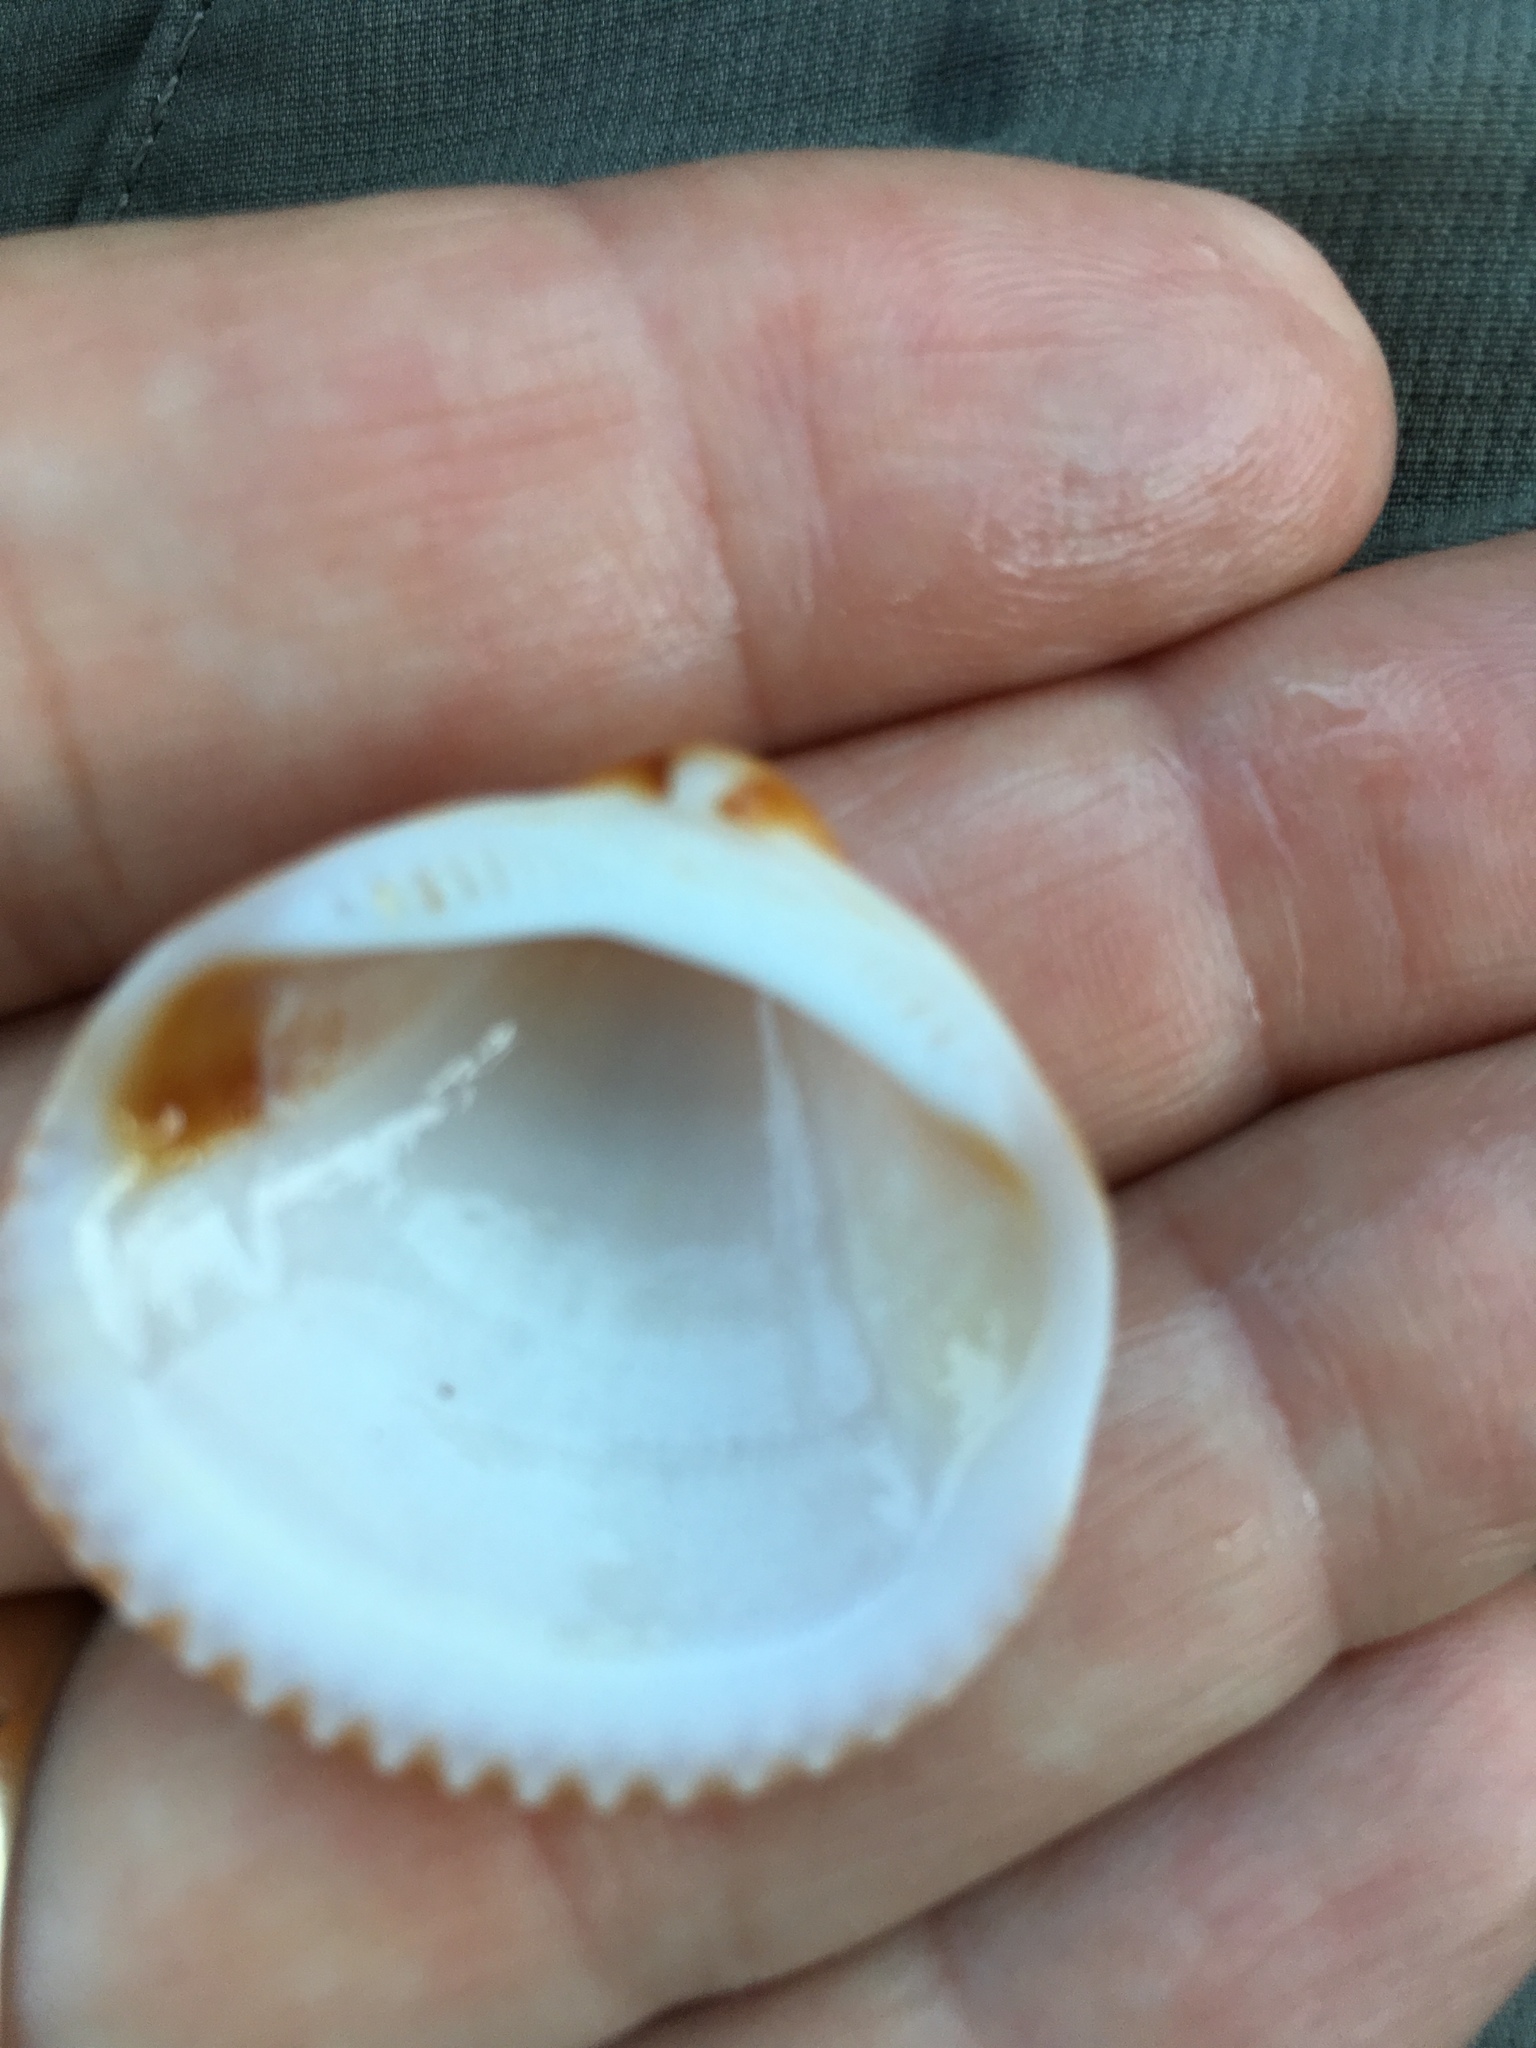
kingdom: Animalia
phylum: Mollusca
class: Bivalvia
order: Arcida
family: Glycymerididae
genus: Glycymeris
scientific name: Glycymeris spectralis
